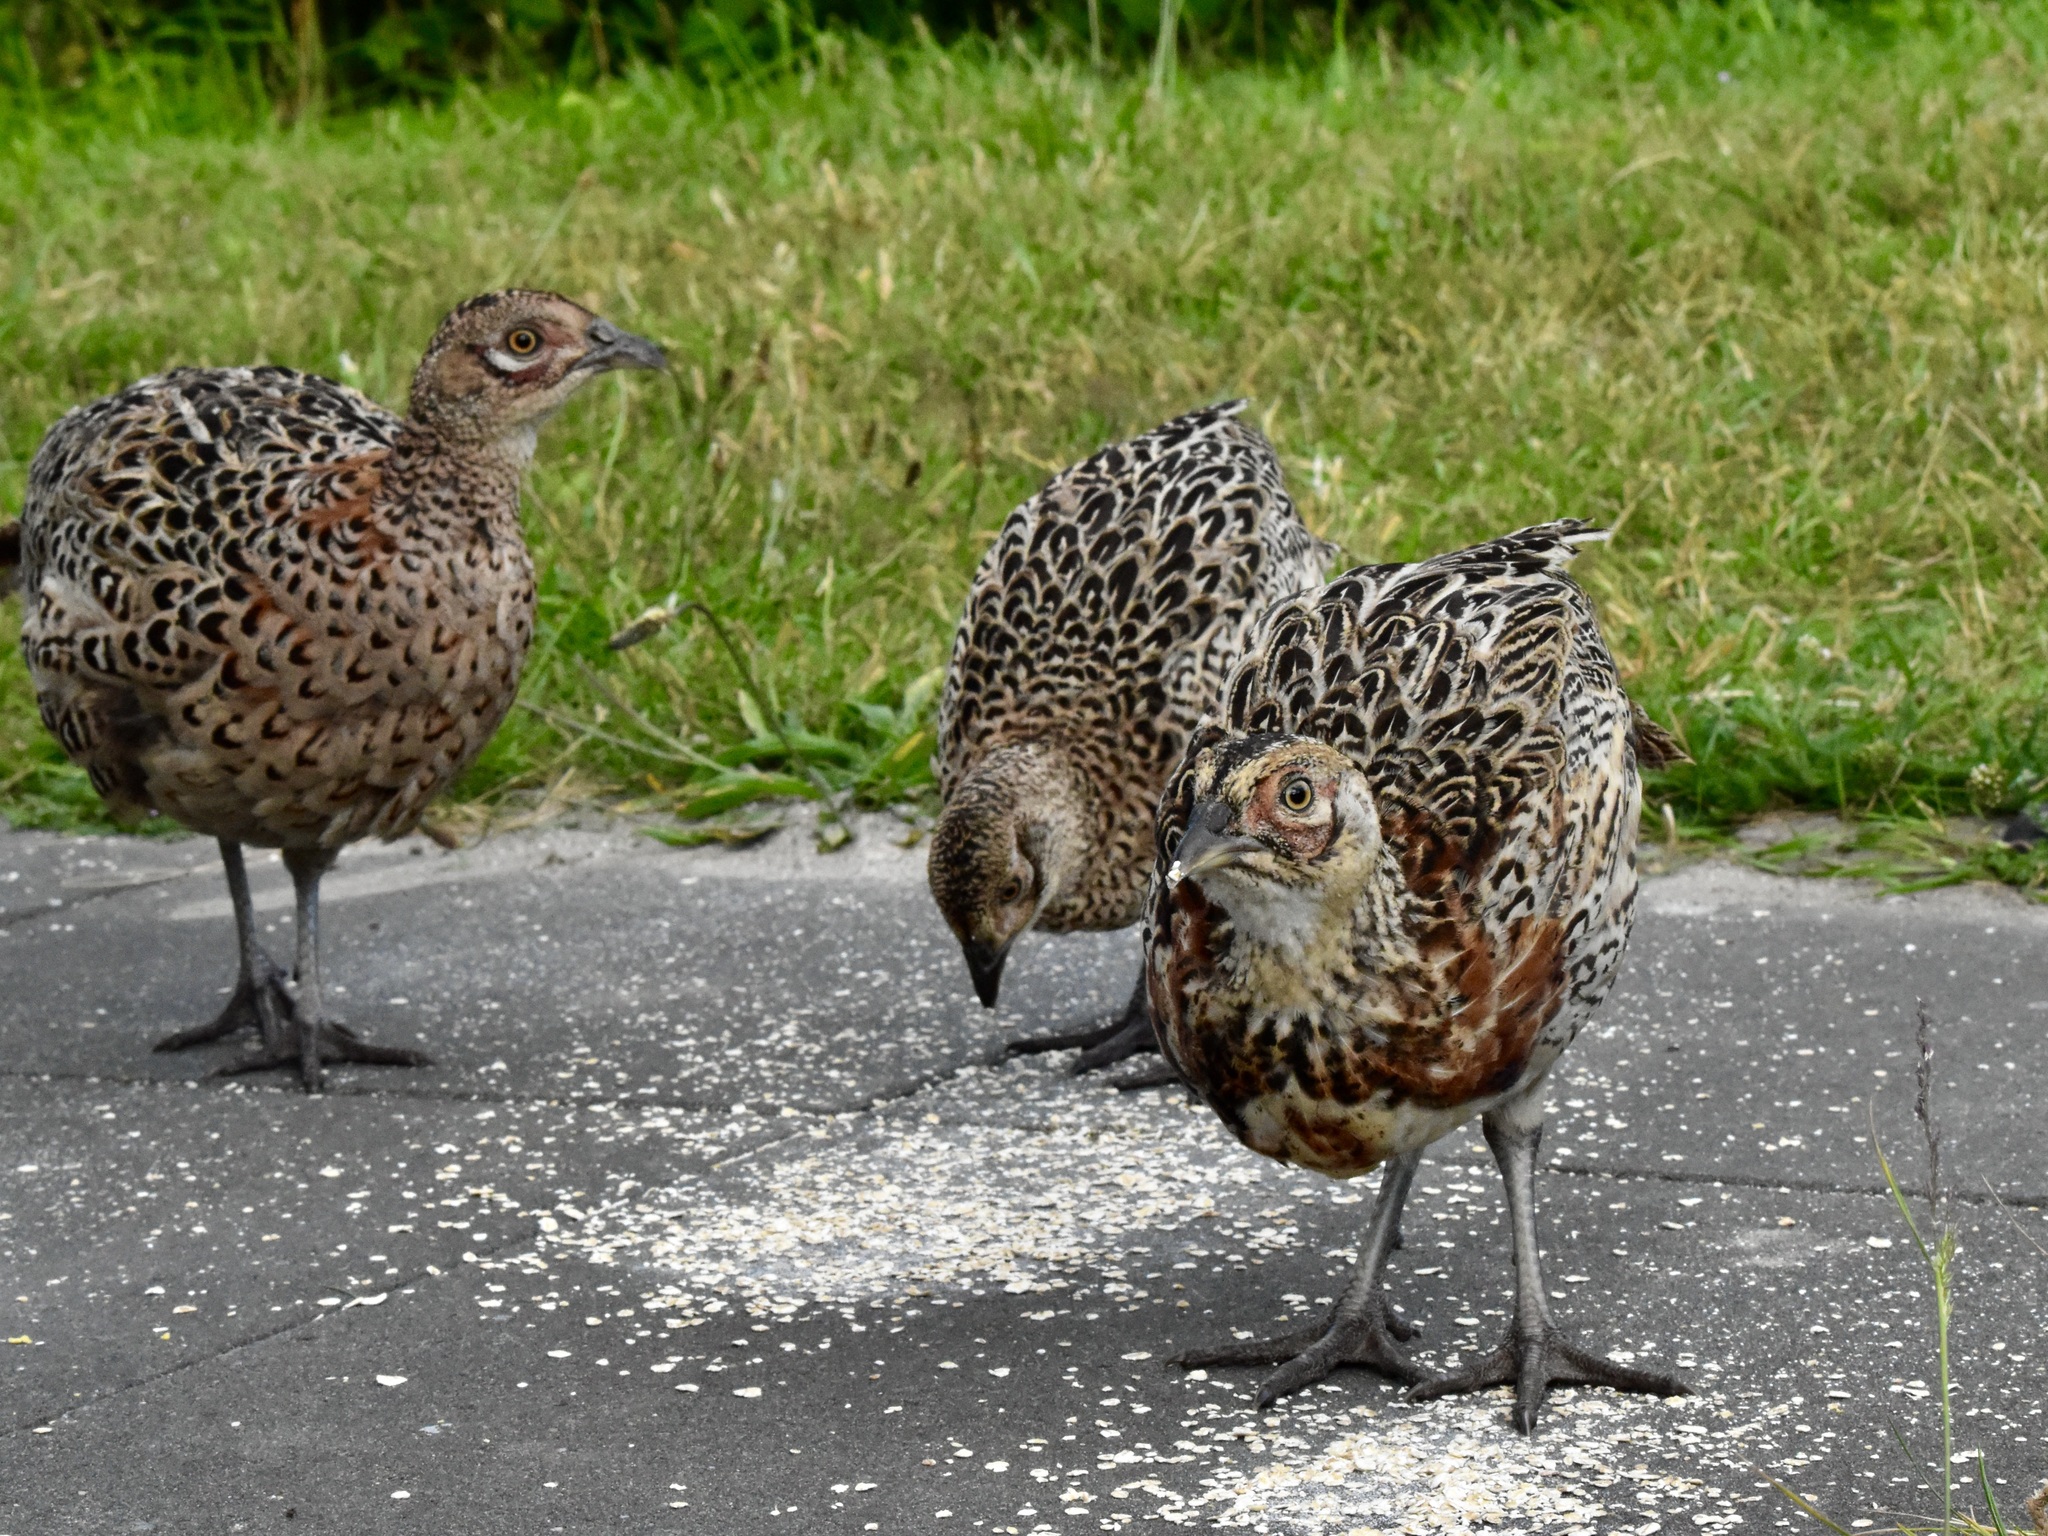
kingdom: Animalia
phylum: Chordata
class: Aves
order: Galliformes
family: Phasianidae
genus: Phasianus
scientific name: Phasianus colchicus
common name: Common pheasant
